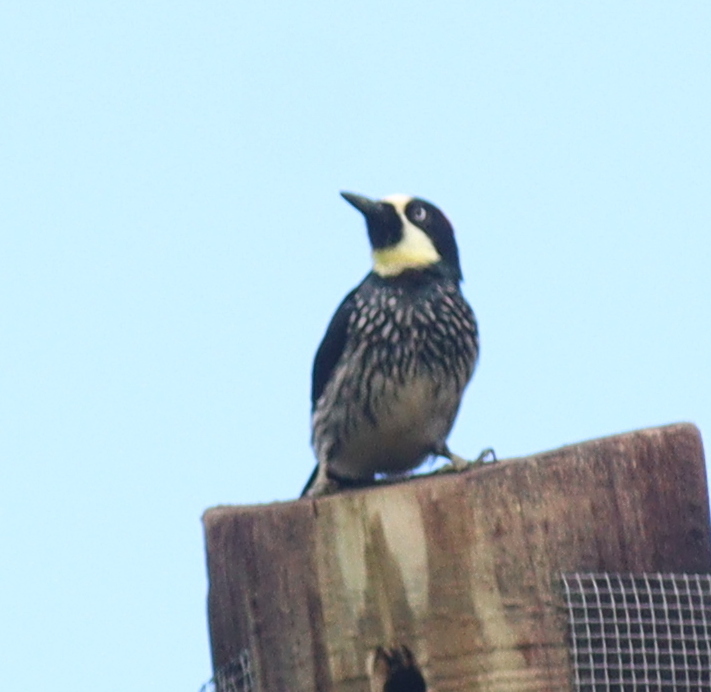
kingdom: Animalia
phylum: Chordata
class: Aves
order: Piciformes
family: Picidae
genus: Melanerpes
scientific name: Melanerpes formicivorus
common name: Acorn woodpecker
